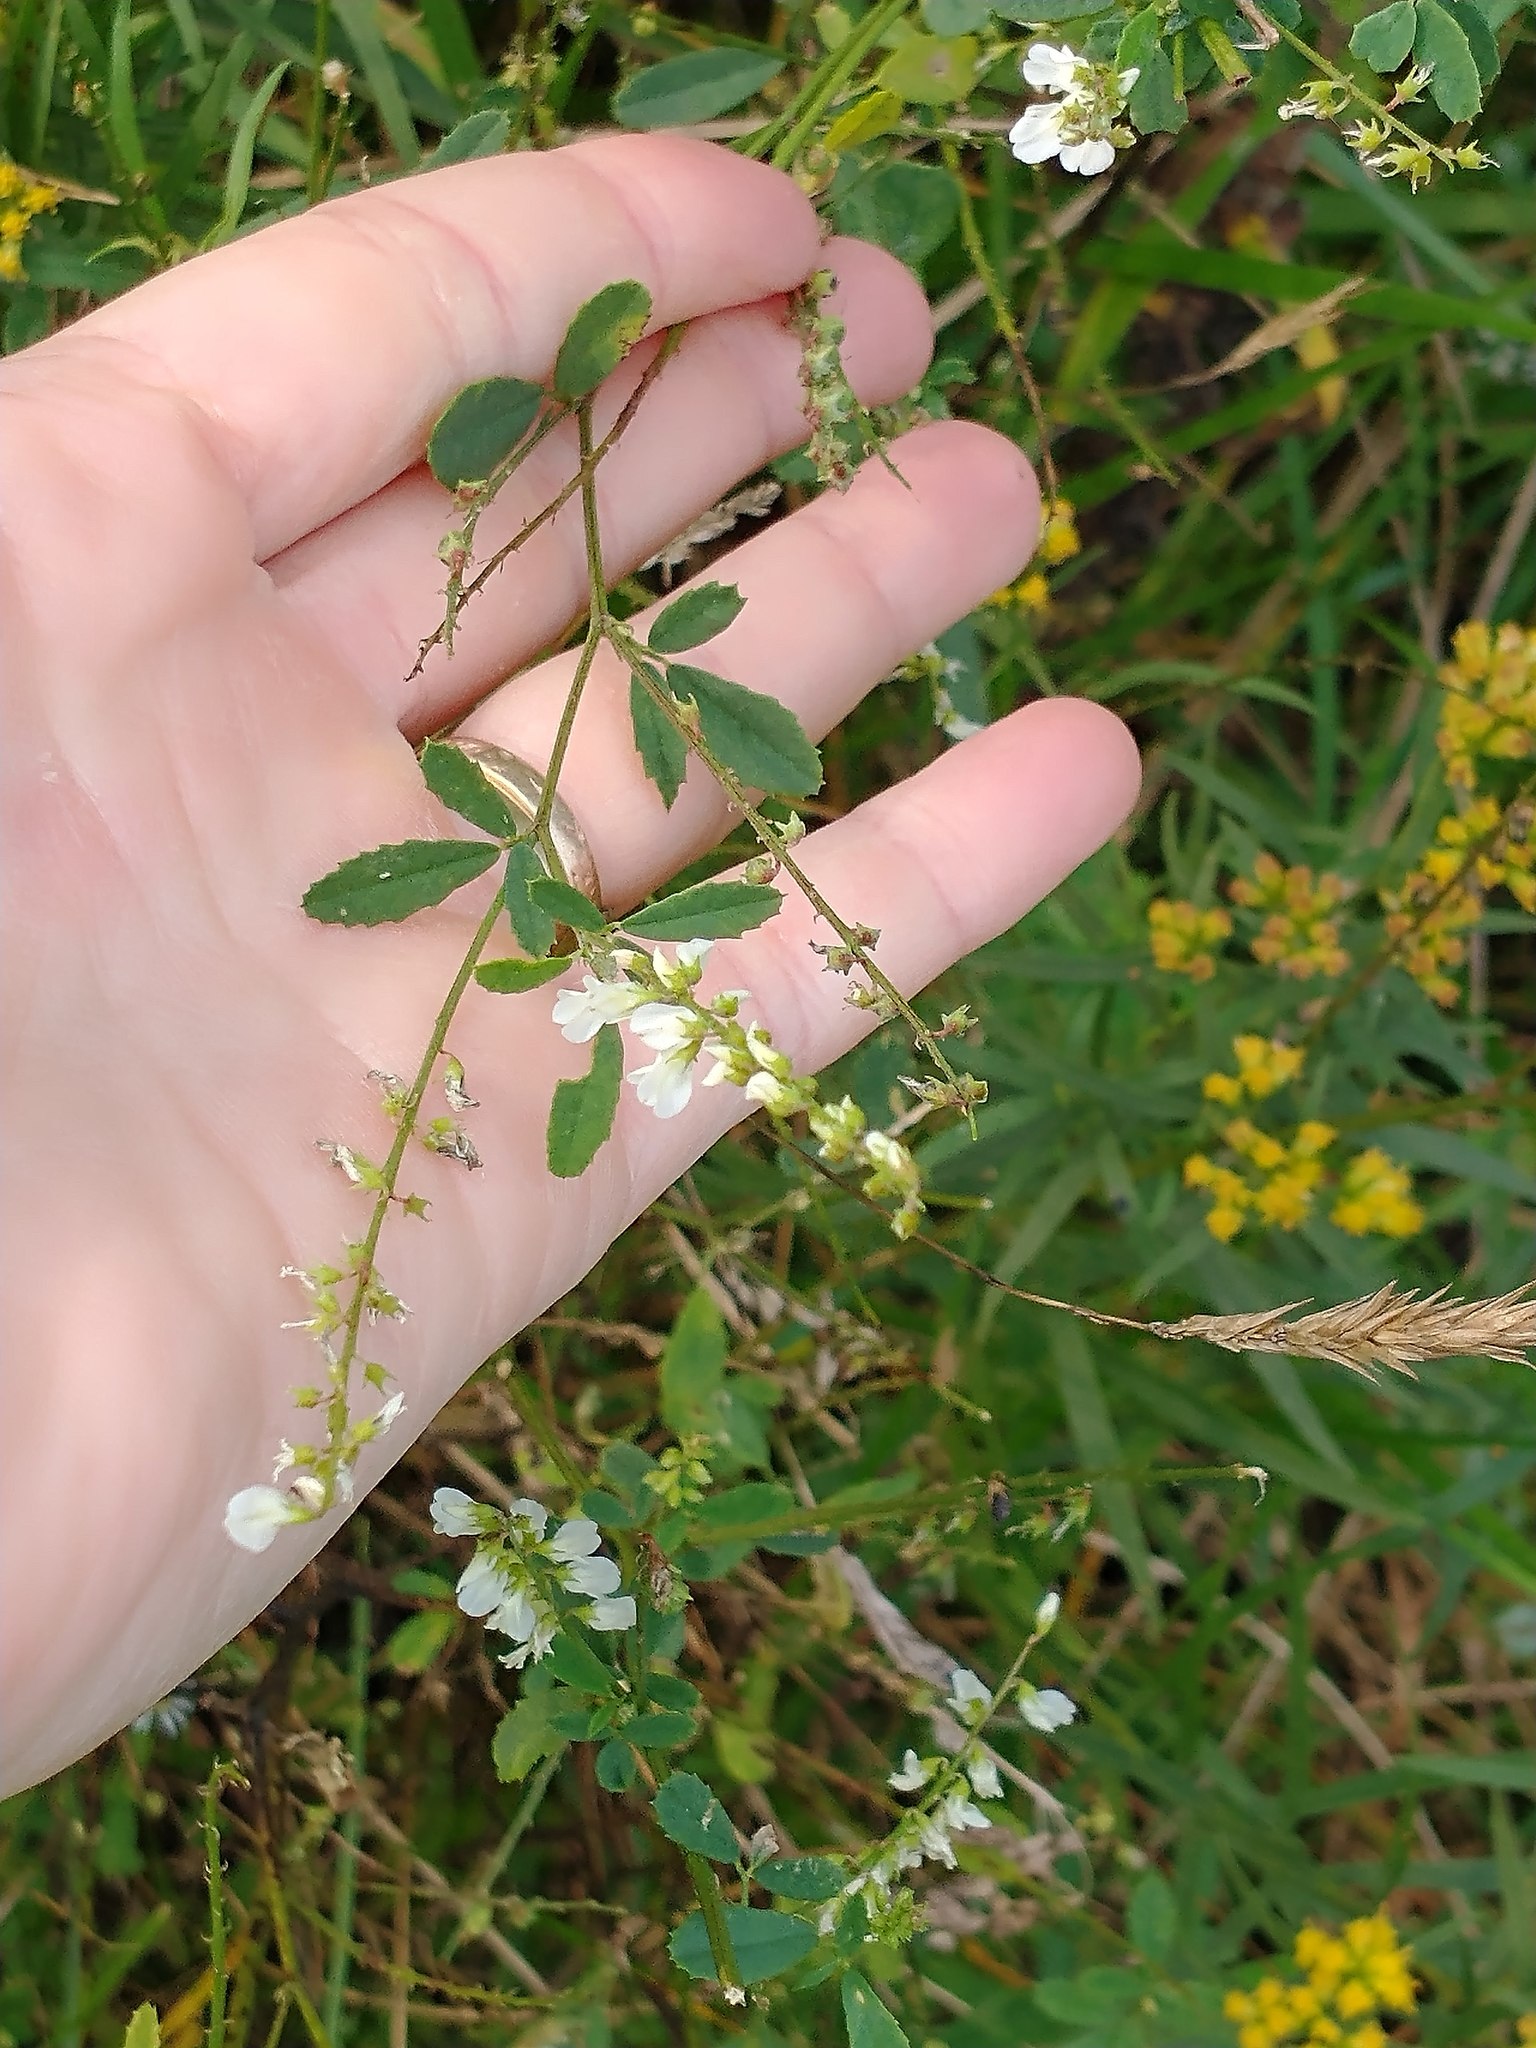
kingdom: Plantae
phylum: Tracheophyta
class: Magnoliopsida
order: Fabales
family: Fabaceae
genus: Melilotus
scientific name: Melilotus albus
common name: White melilot
